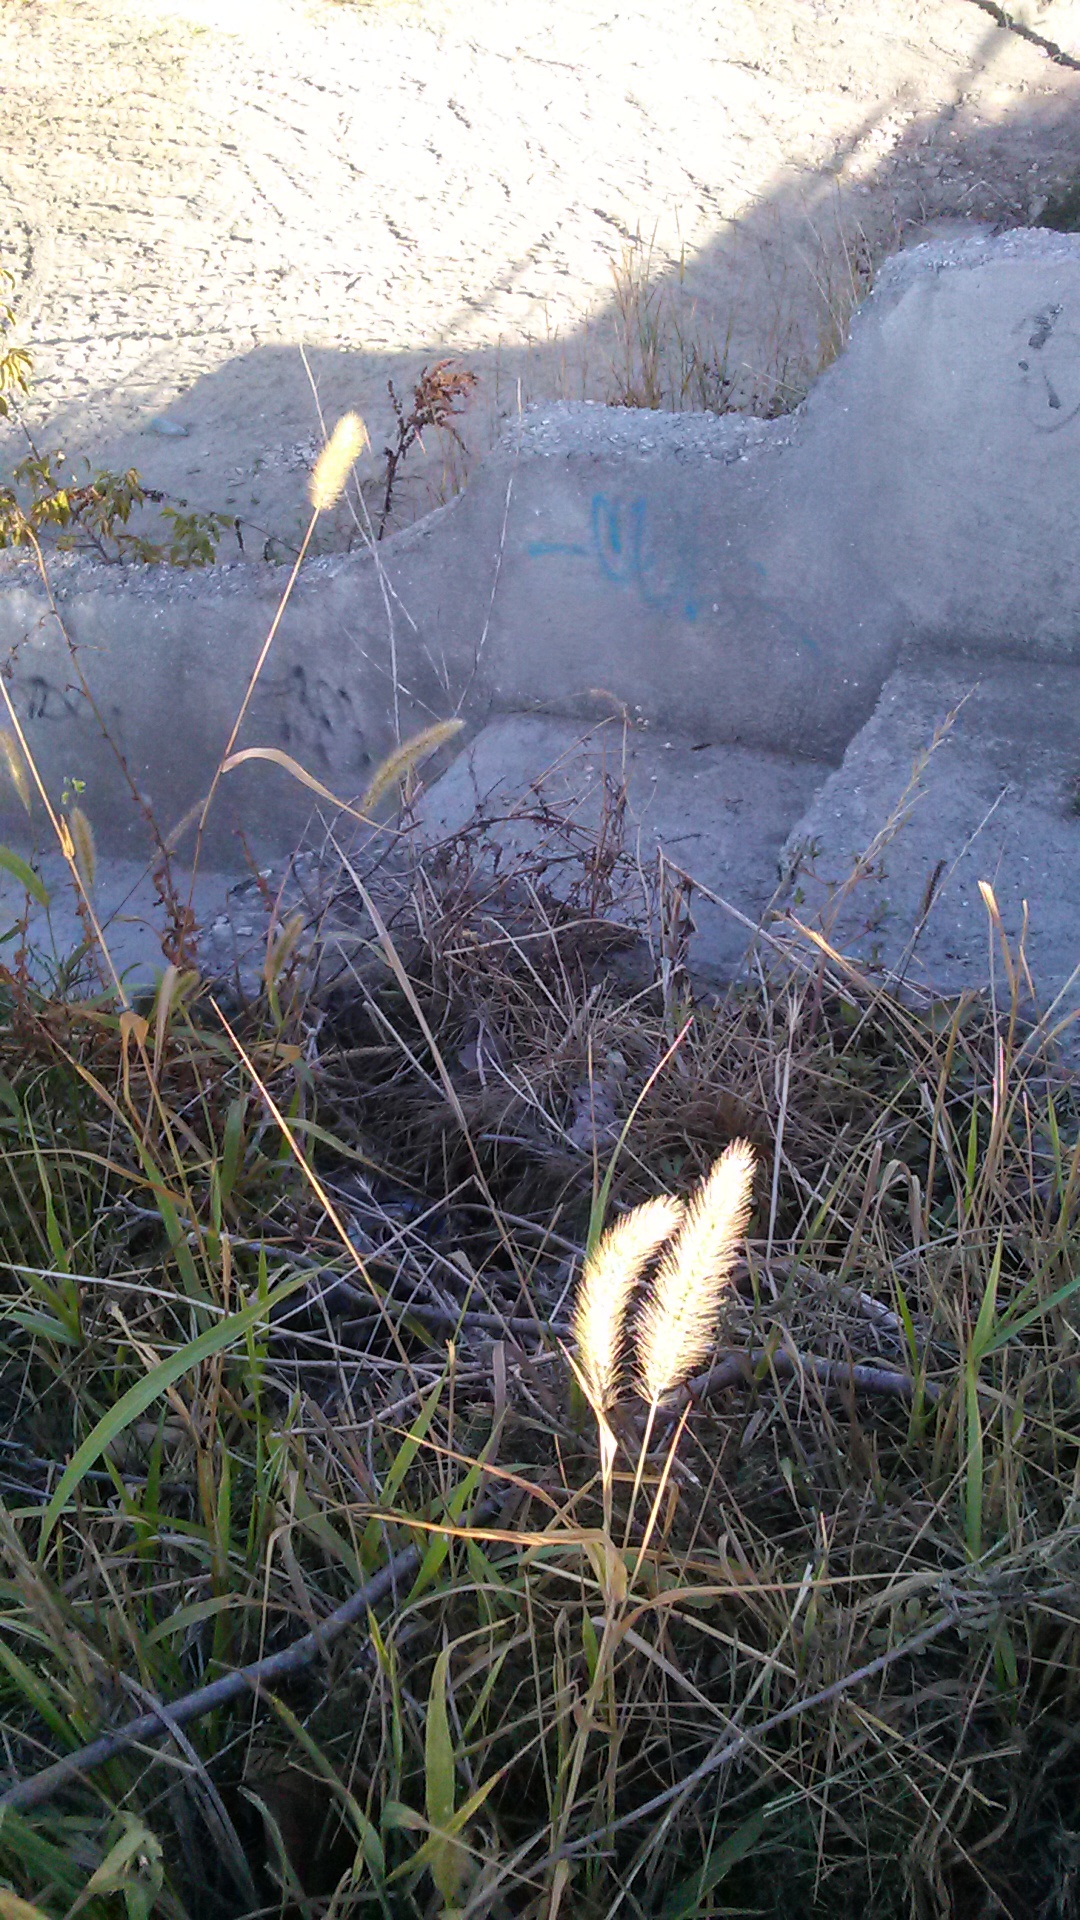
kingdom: Plantae
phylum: Tracheophyta
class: Liliopsida
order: Poales
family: Poaceae
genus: Setaria
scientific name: Setaria viridis
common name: Green bristlegrass
